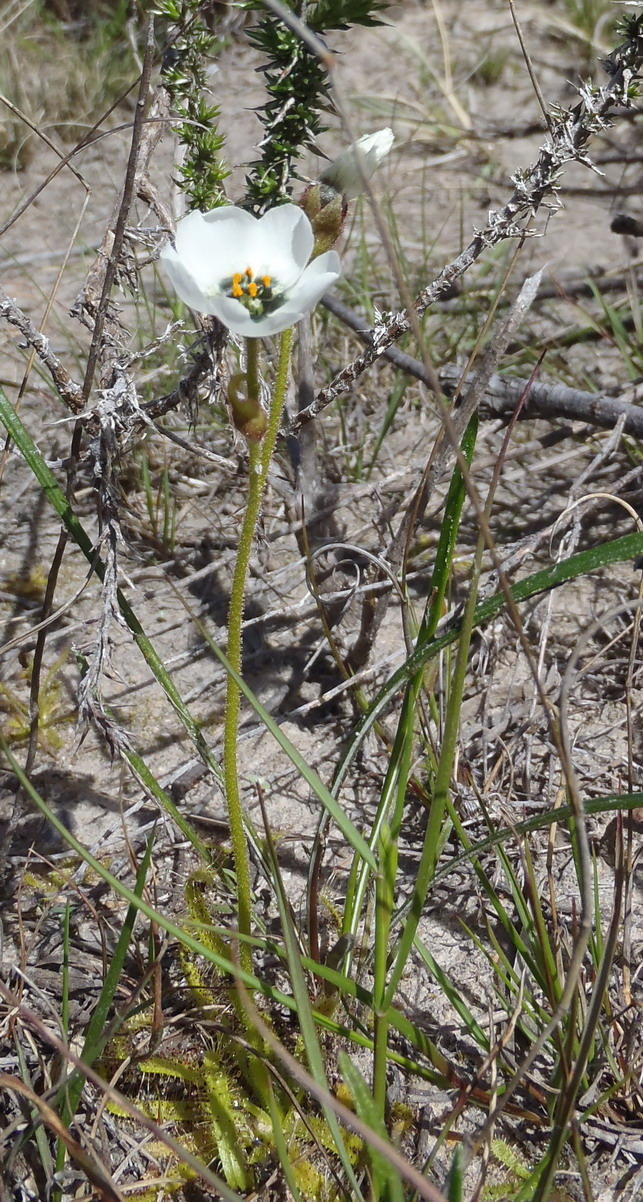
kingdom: Plantae
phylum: Tracheophyta
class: Magnoliopsida
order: Caryophyllales
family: Droseraceae
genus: Drosera
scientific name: Drosera cistiflora
